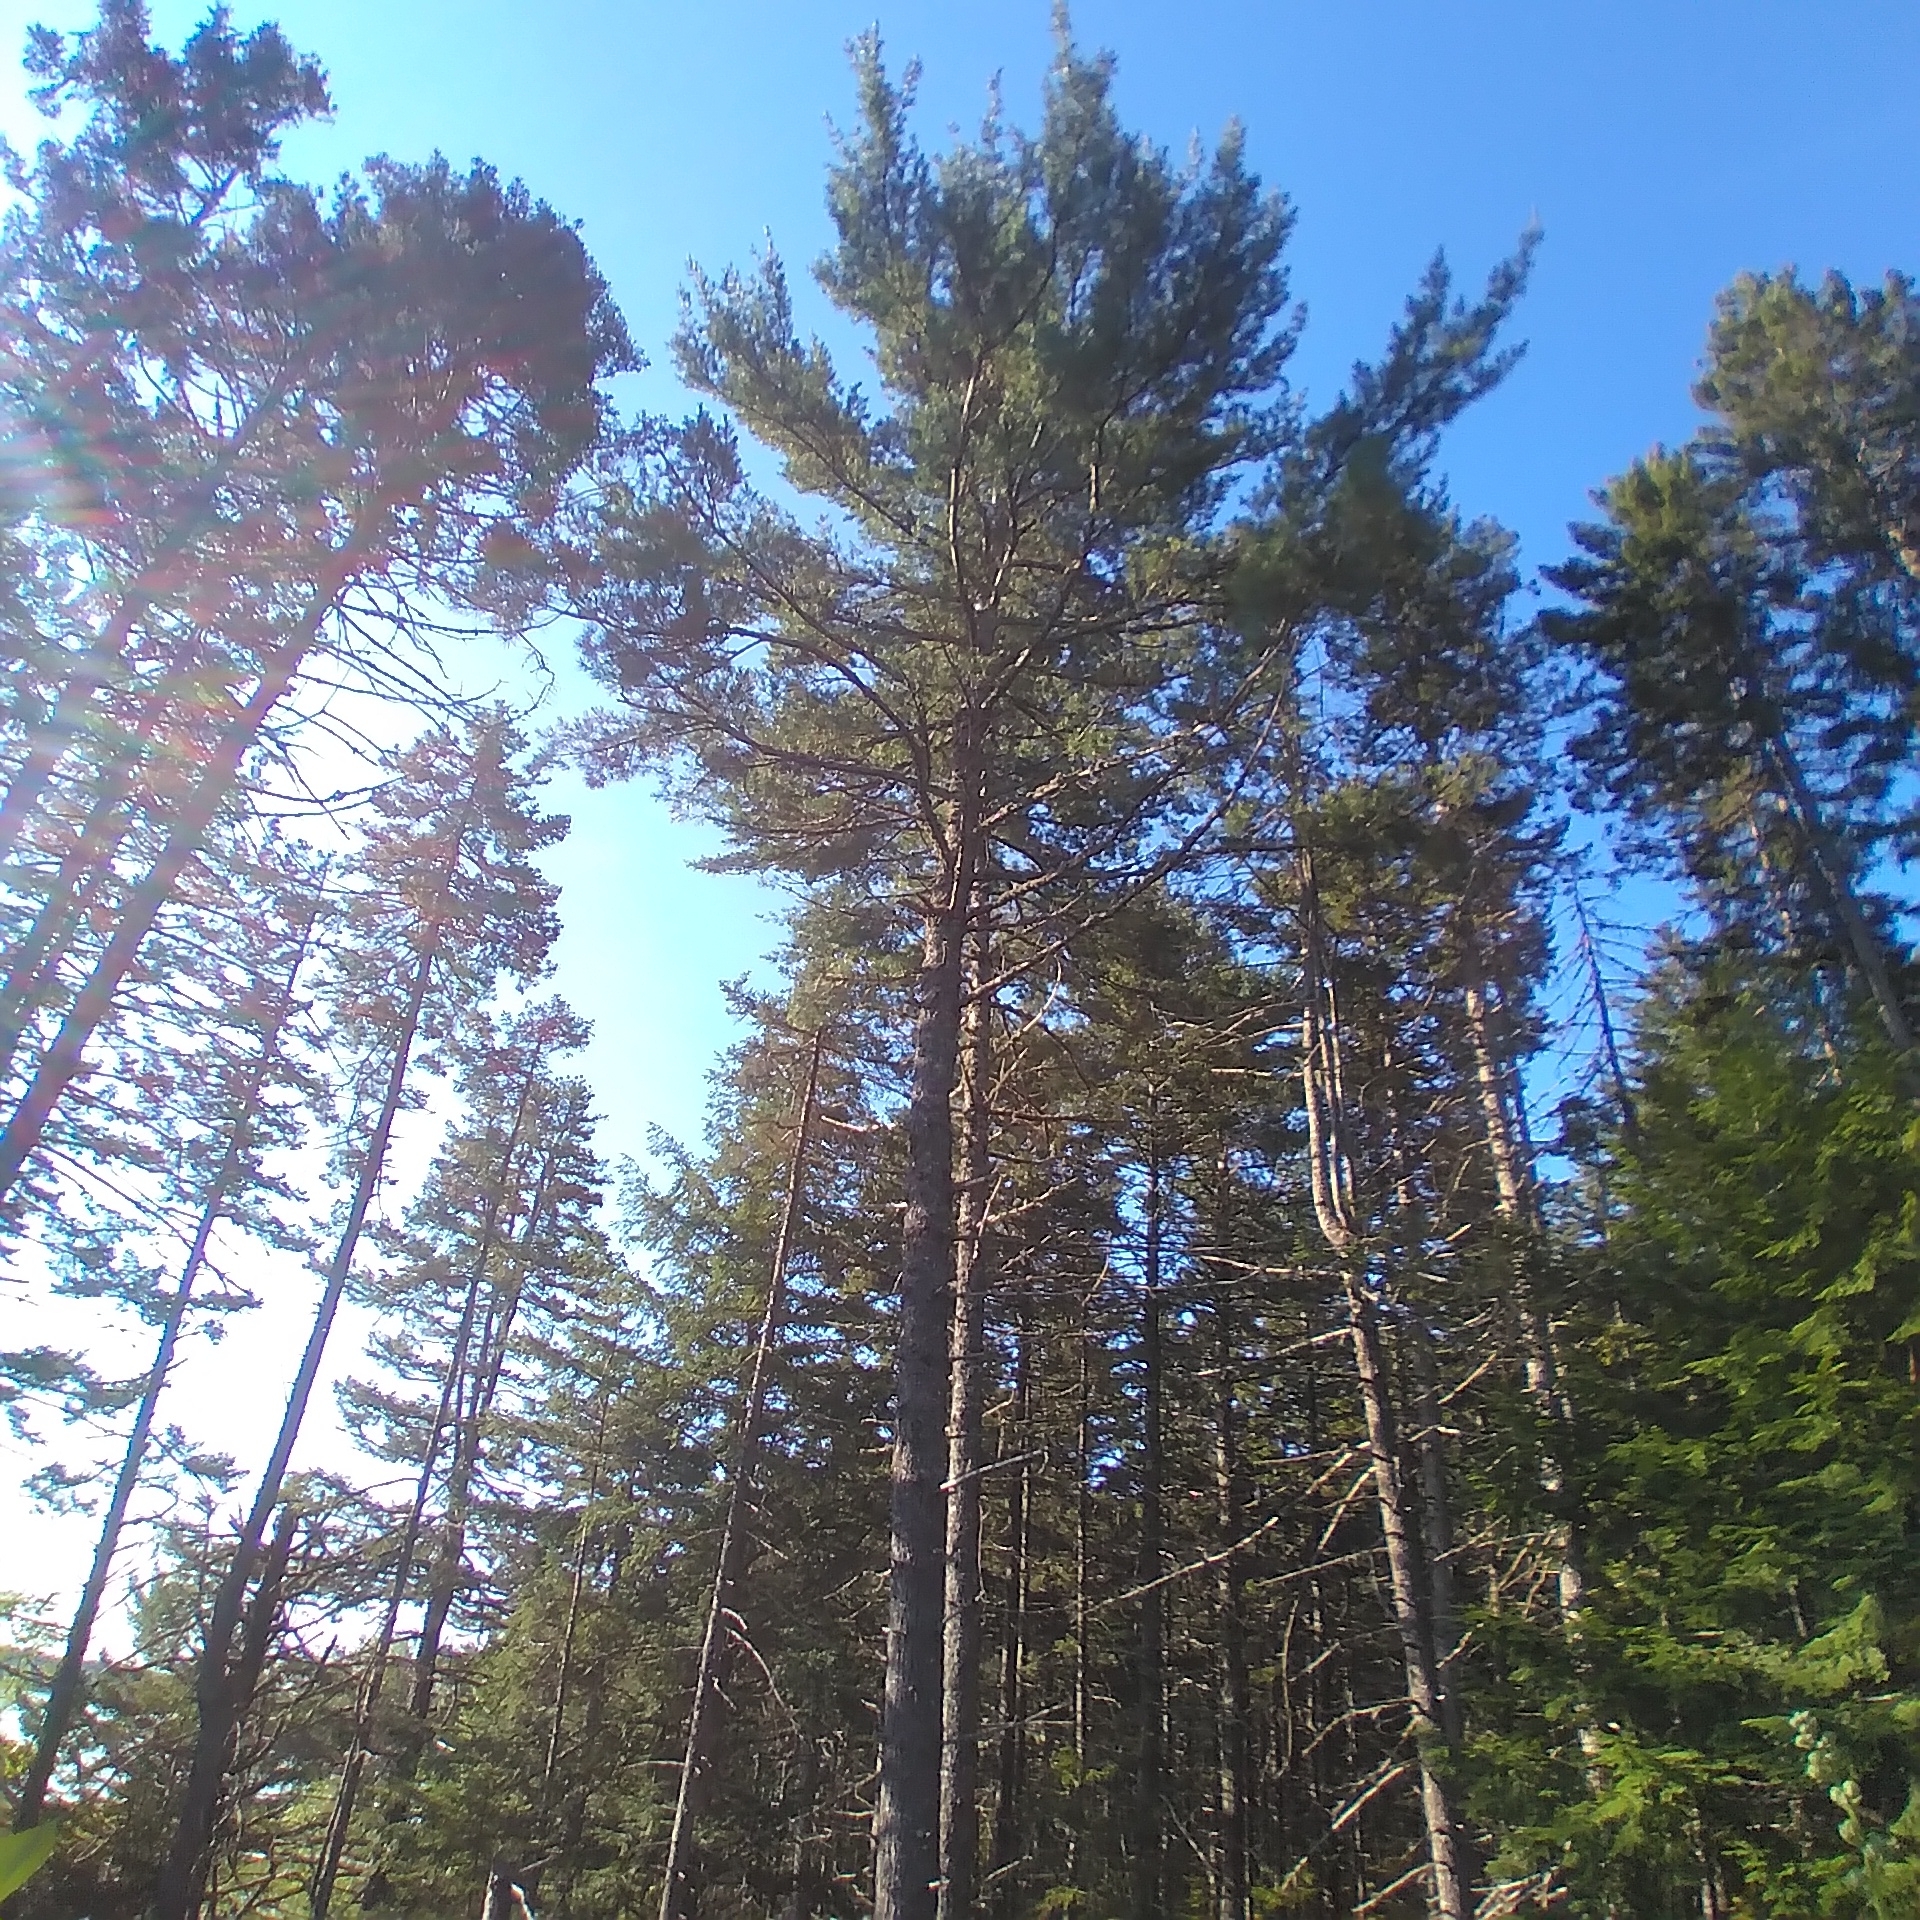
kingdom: Plantae
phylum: Tracheophyta
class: Pinopsida
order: Pinales
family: Pinaceae
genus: Pinus
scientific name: Pinus strobus
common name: Weymouth pine
